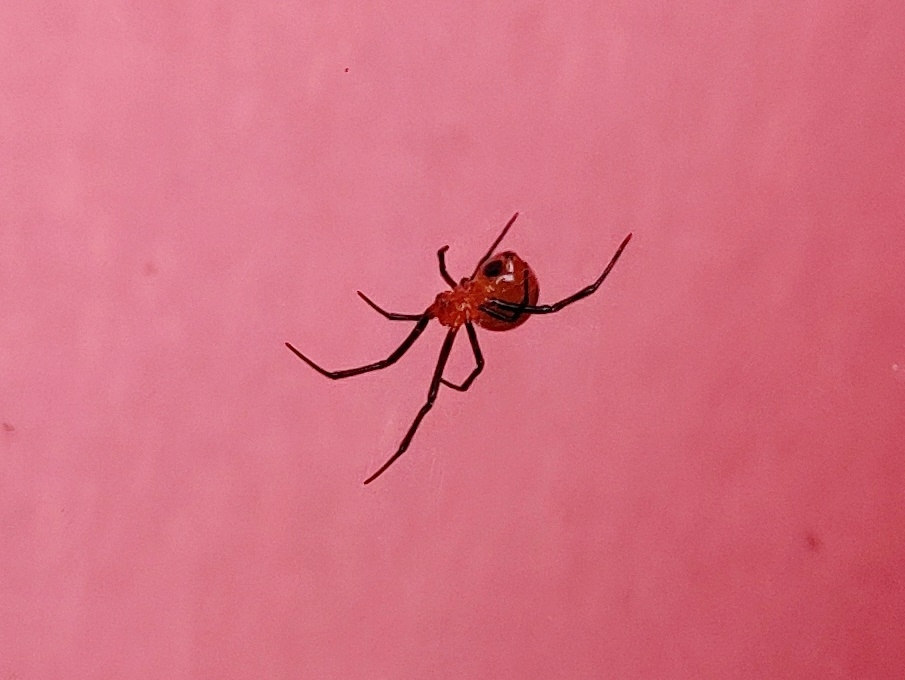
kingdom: Animalia
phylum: Arthropoda
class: Arachnida
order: Araneae
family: Theridiidae
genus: Argyrodes
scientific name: Argyrodes miniaceus
